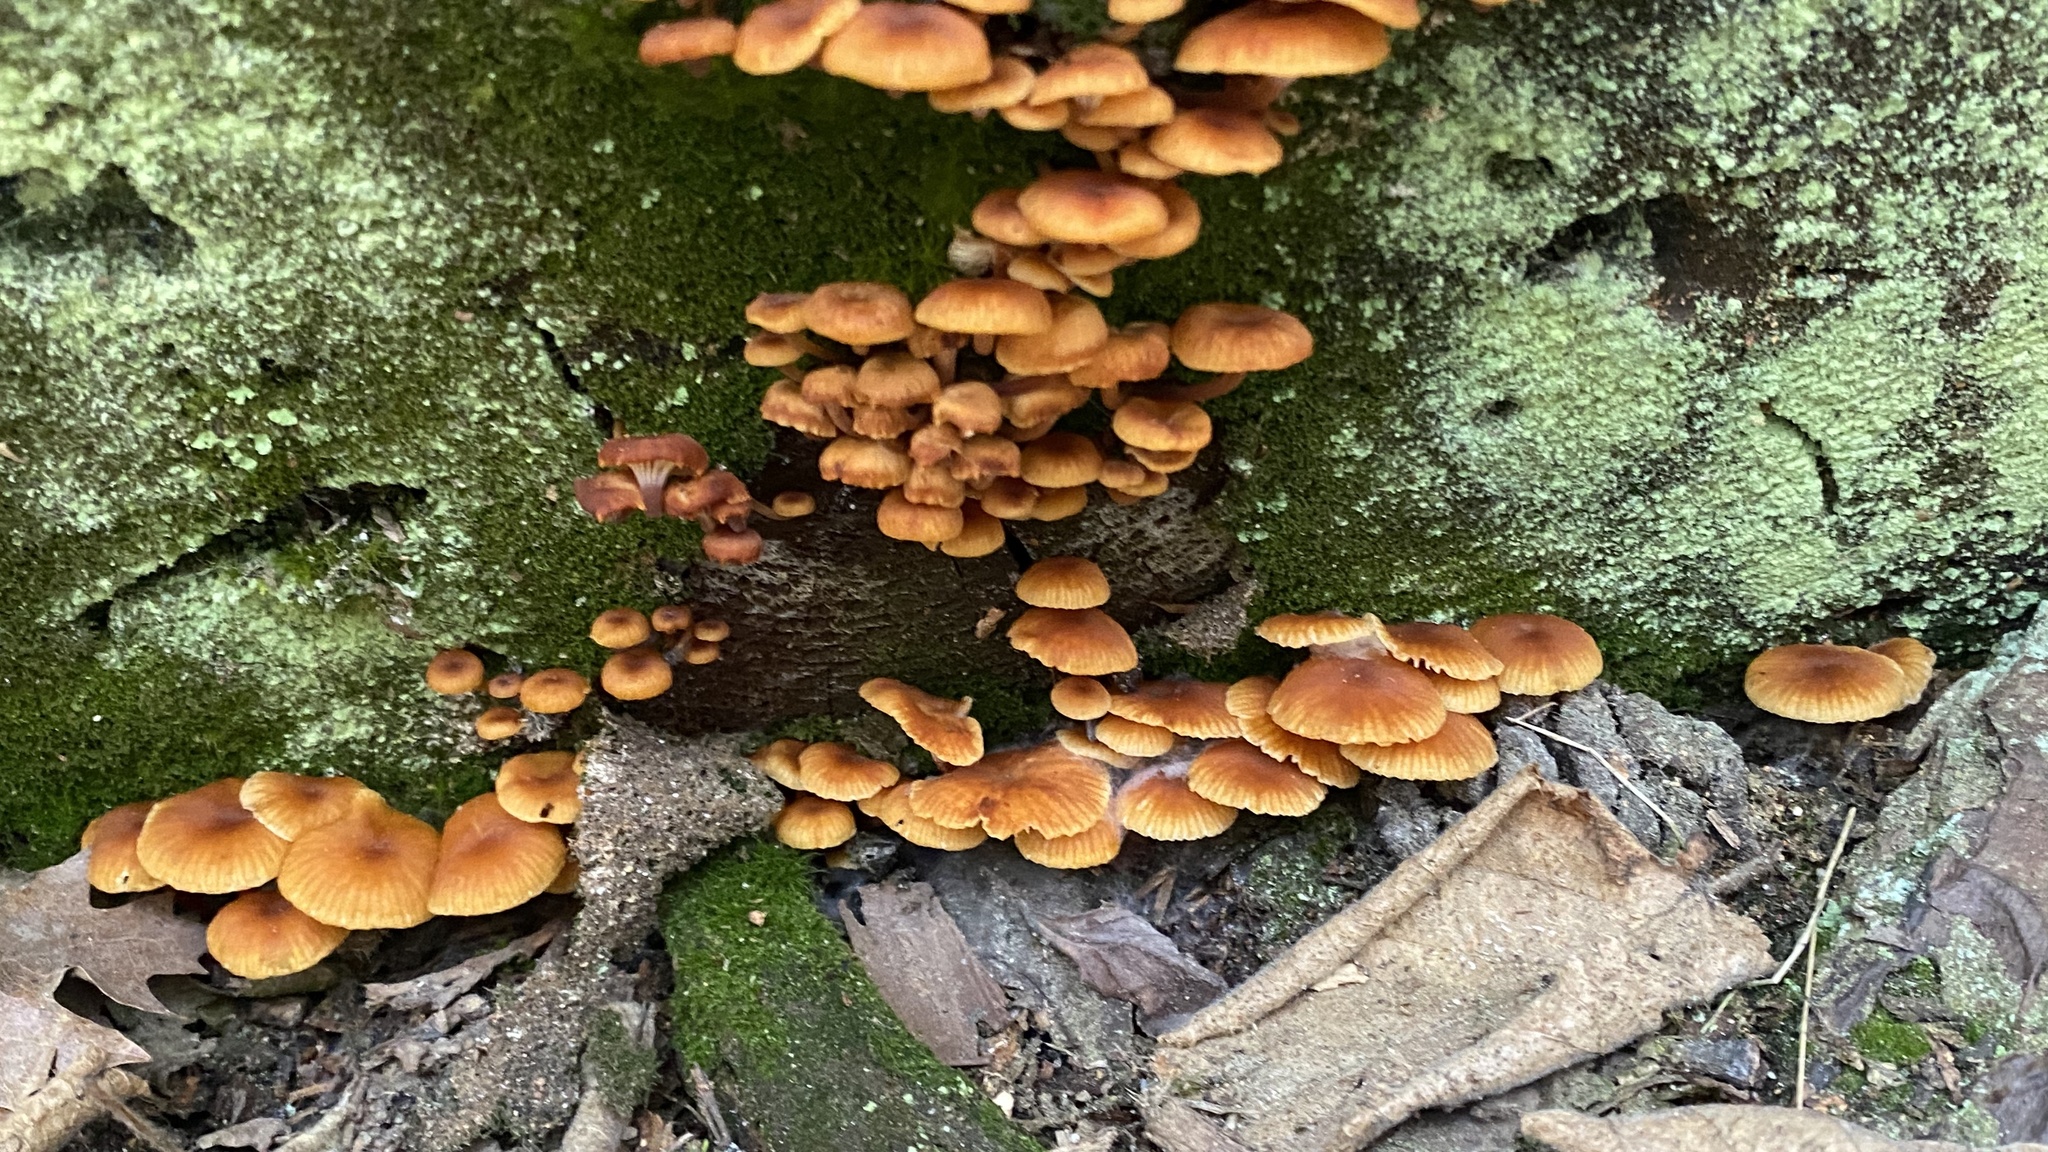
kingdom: Fungi
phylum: Basidiomycota
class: Agaricomycetes
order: Agaricales
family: Mycenaceae
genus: Xeromphalina
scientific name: Xeromphalina campanella
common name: Pinewood gingertail
